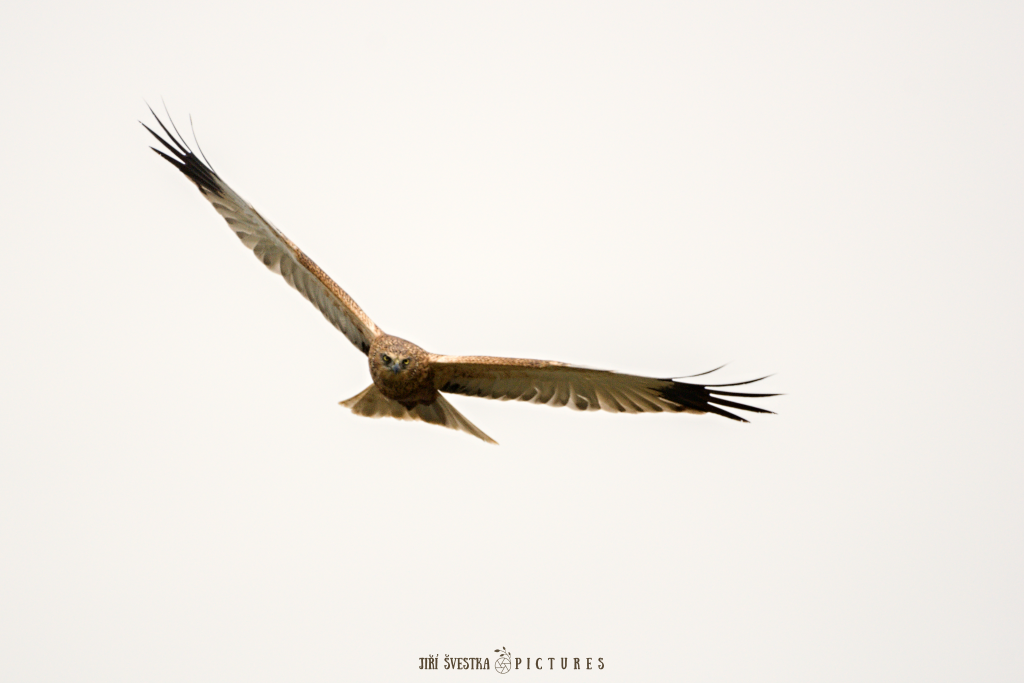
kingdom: Animalia
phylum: Chordata
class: Aves
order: Accipitriformes
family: Accipitridae
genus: Circus
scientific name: Circus aeruginosus
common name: Western marsh harrier
